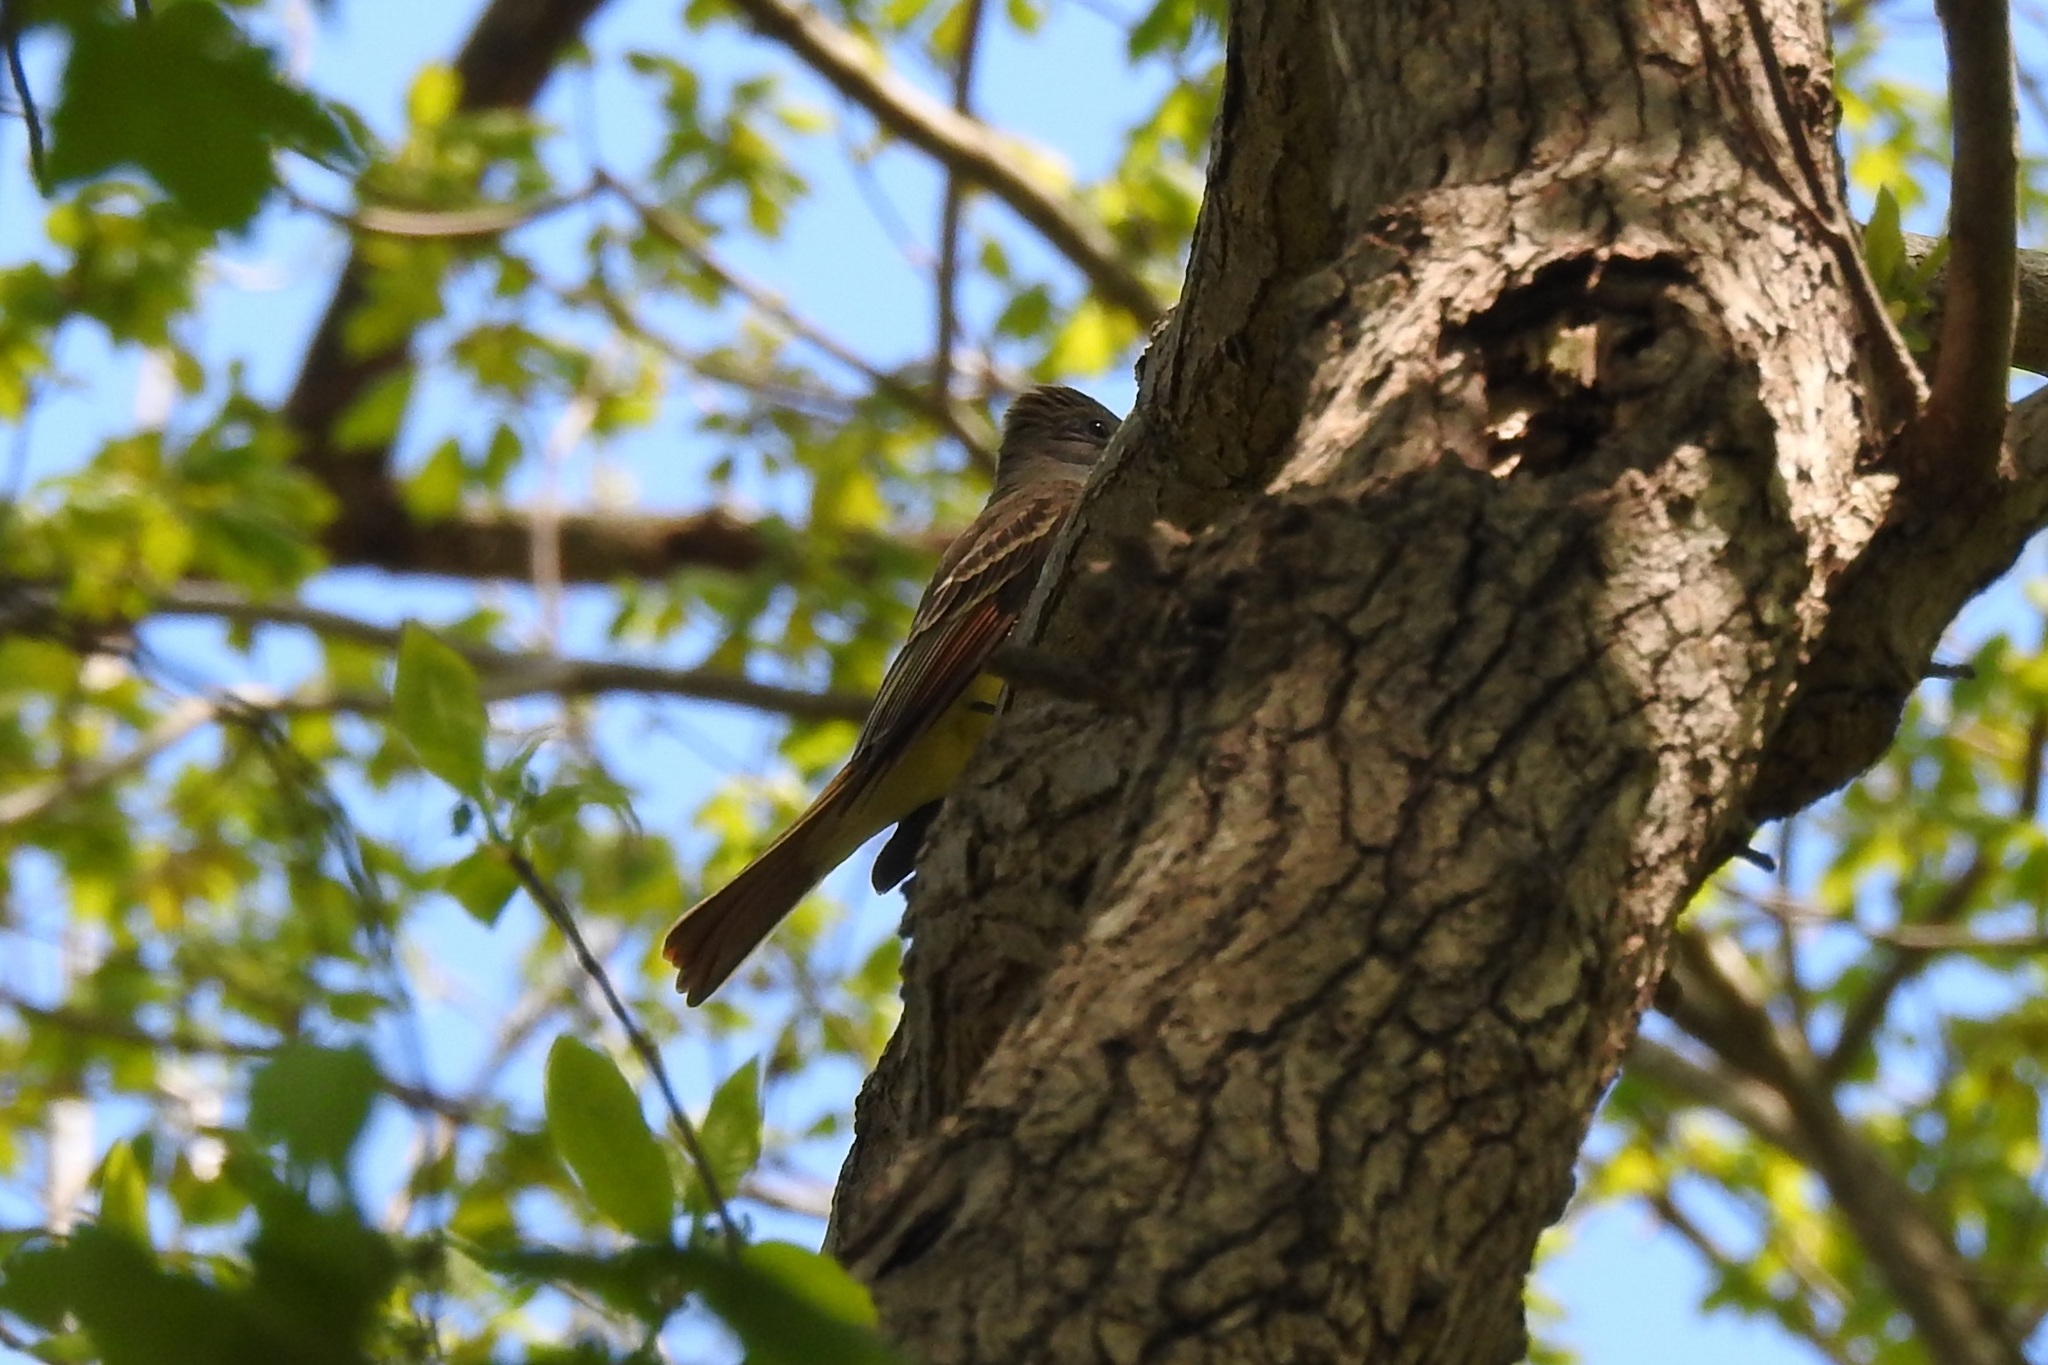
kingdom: Animalia
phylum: Chordata
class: Aves
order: Passeriformes
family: Tyrannidae
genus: Myiarchus
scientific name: Myiarchus crinitus
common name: Great crested flycatcher
